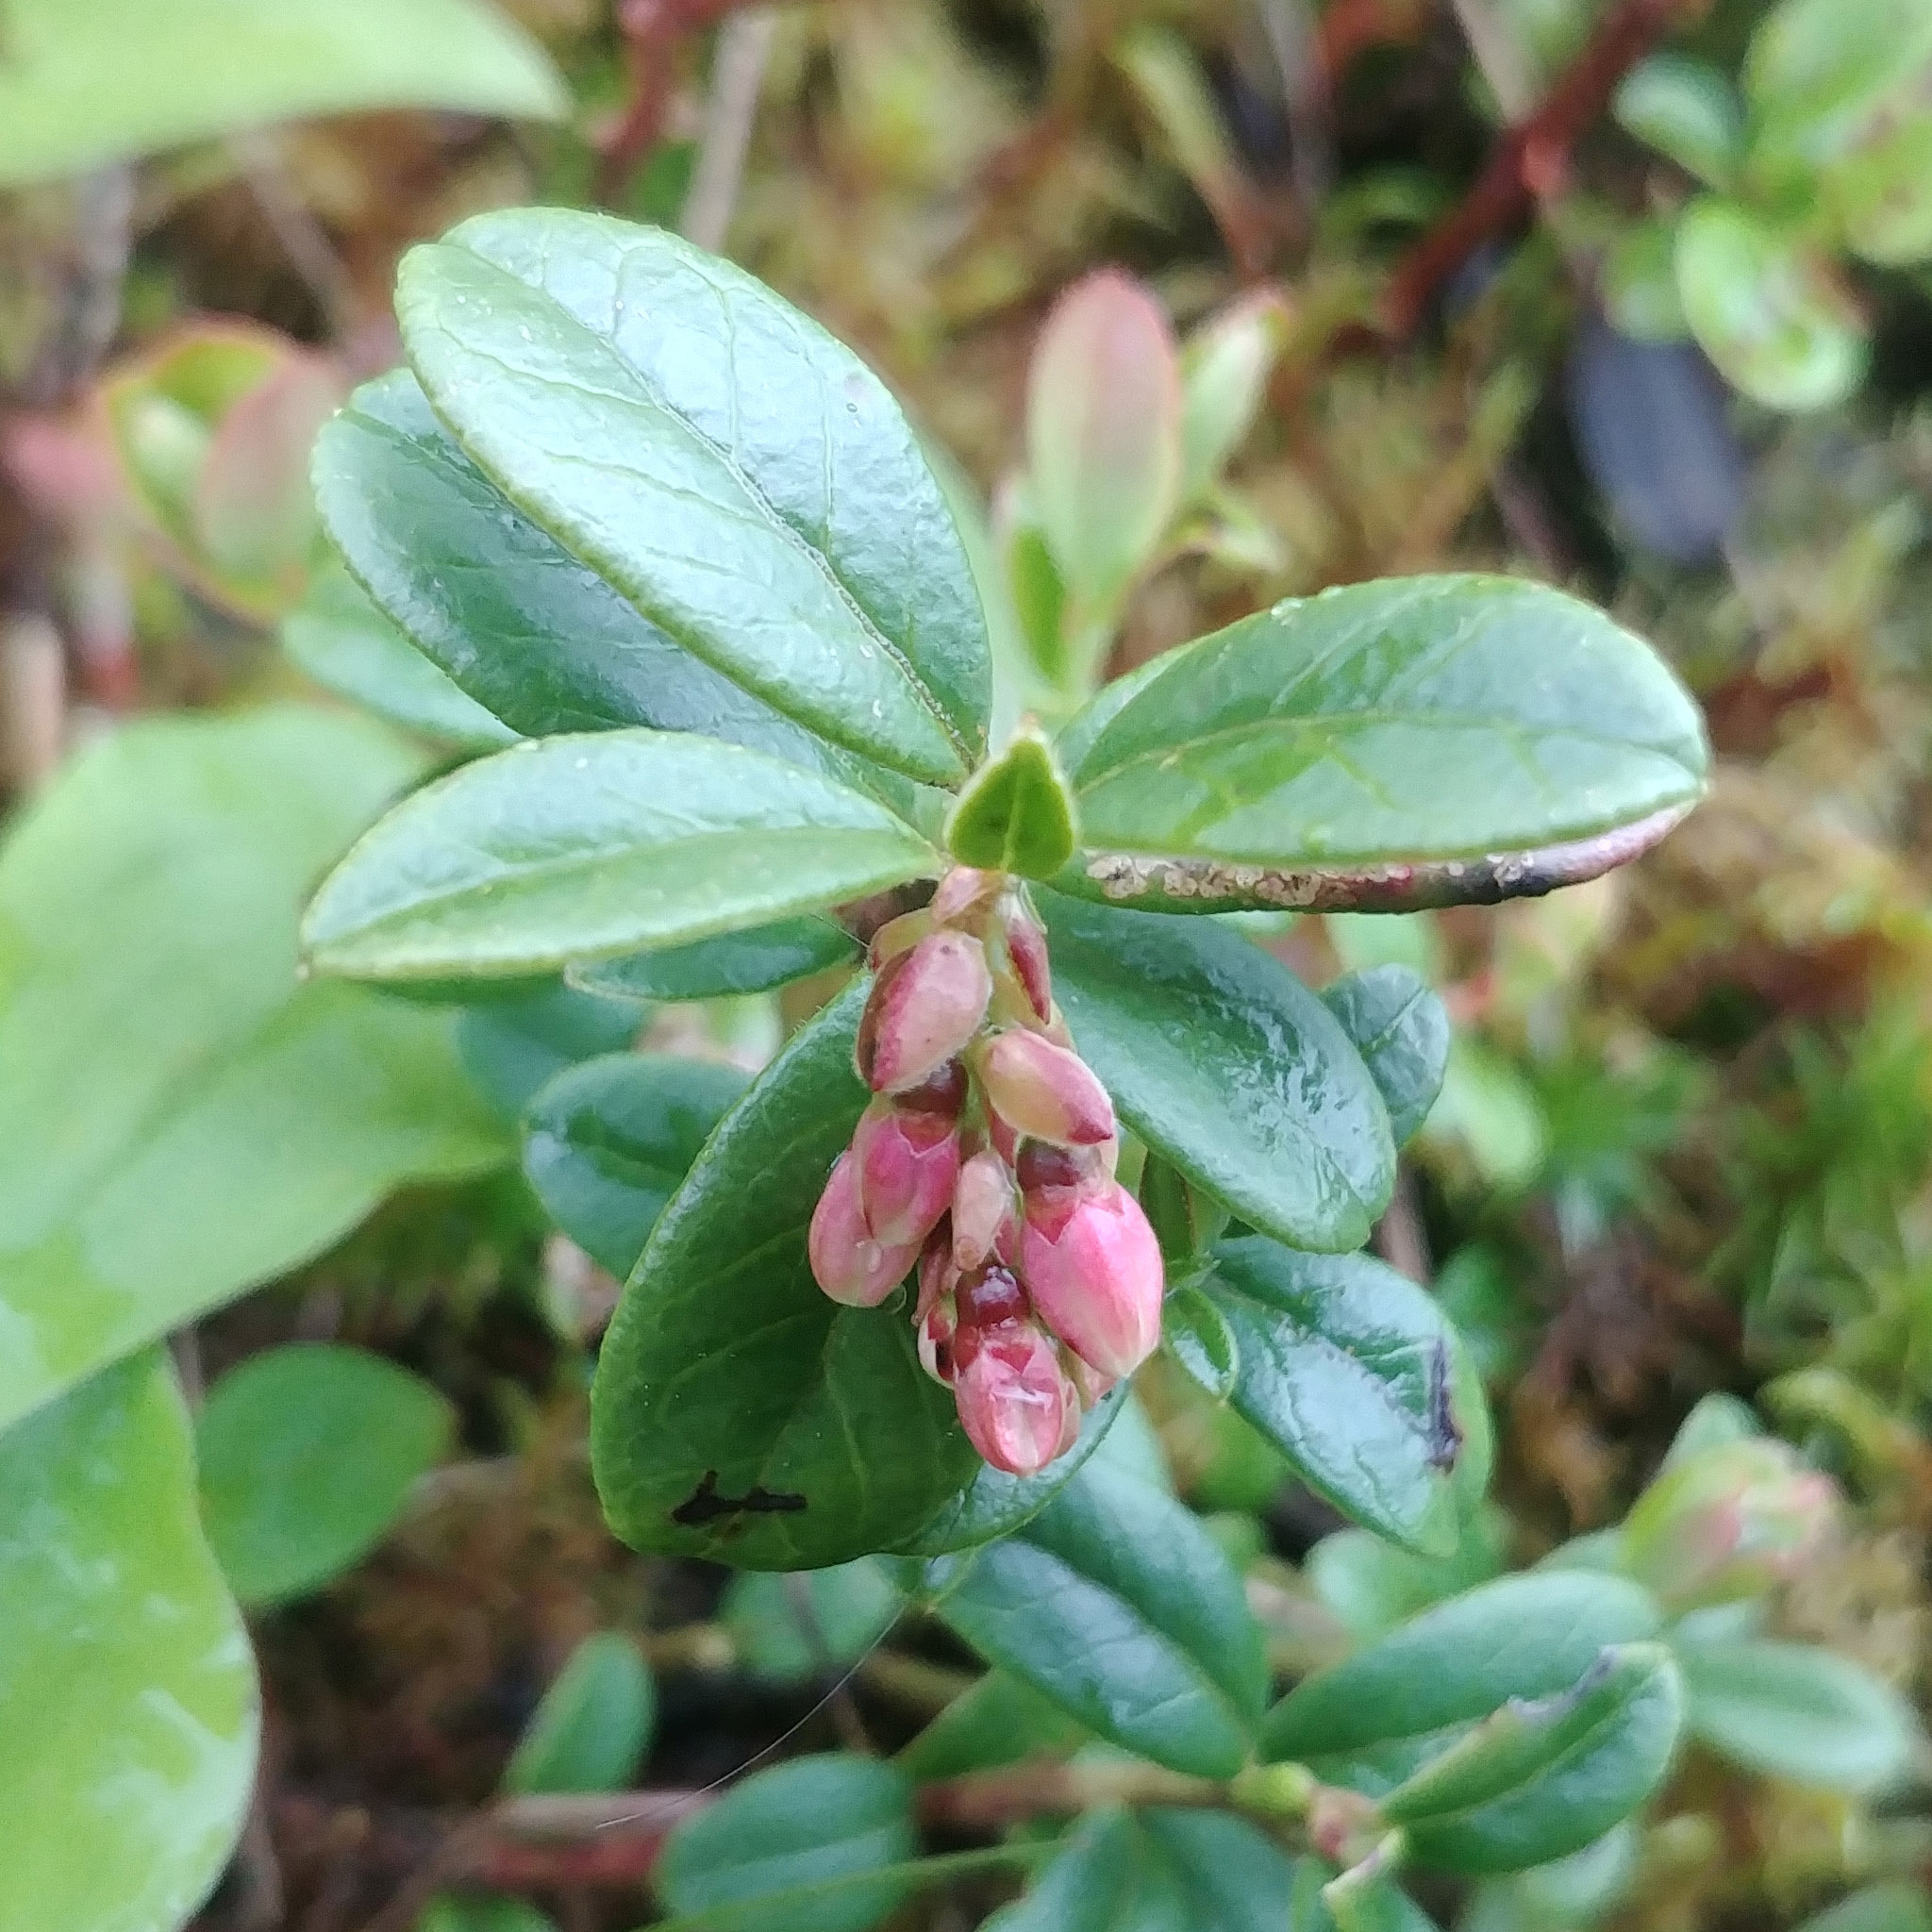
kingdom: Plantae
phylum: Tracheophyta
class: Magnoliopsida
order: Ericales
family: Ericaceae
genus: Vaccinium
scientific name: Vaccinium vitis-idaea
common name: Cowberry
